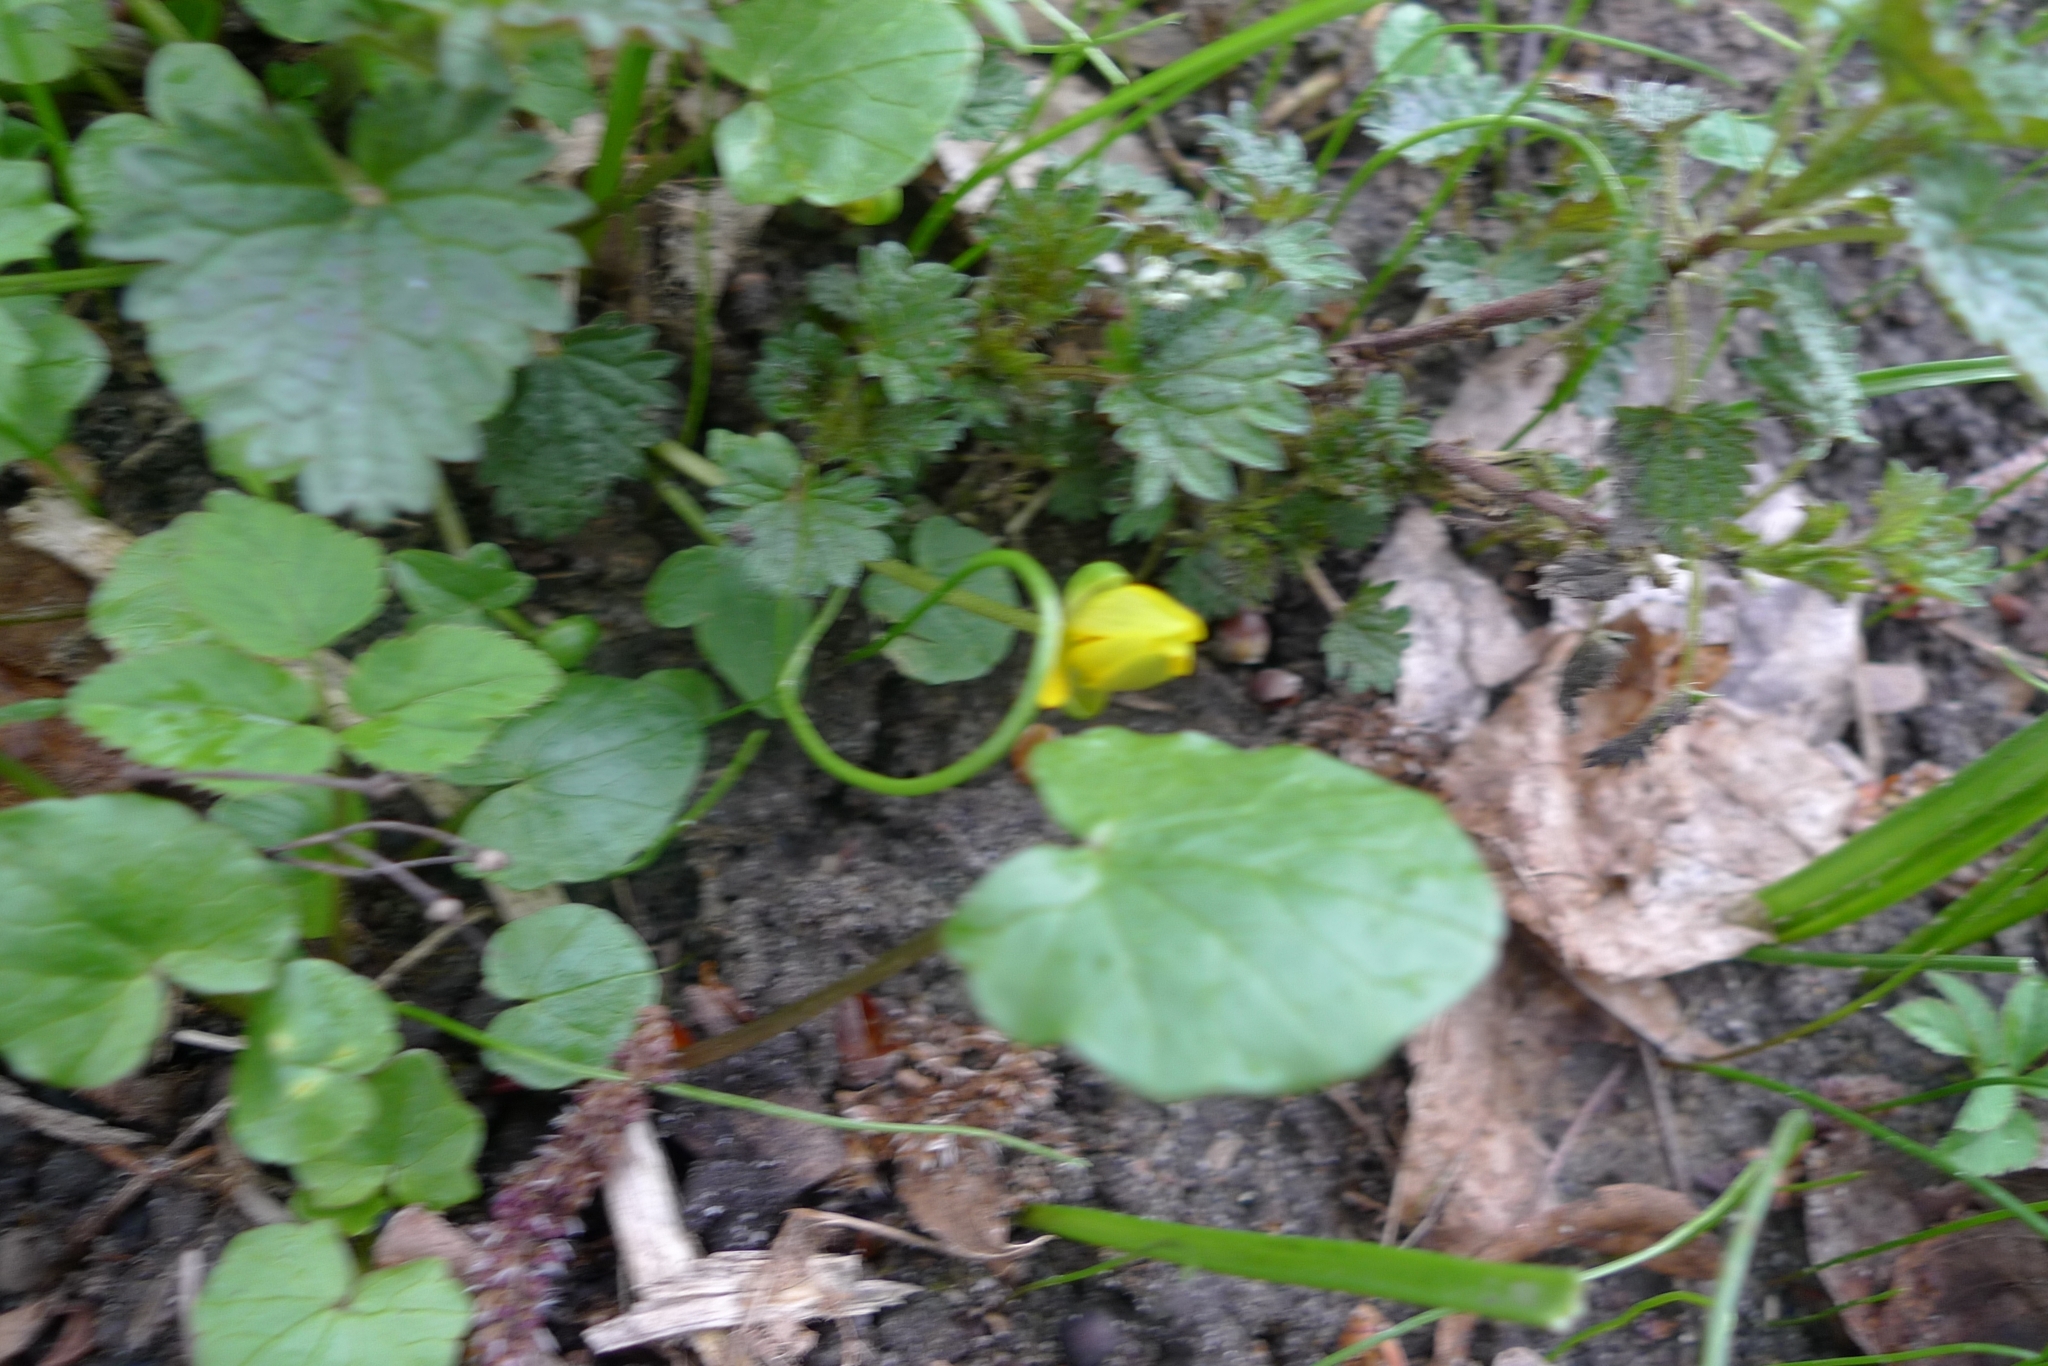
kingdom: Plantae
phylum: Tracheophyta
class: Magnoliopsida
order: Ranunculales
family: Ranunculaceae
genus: Ficaria
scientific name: Ficaria verna
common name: Lesser celandine
